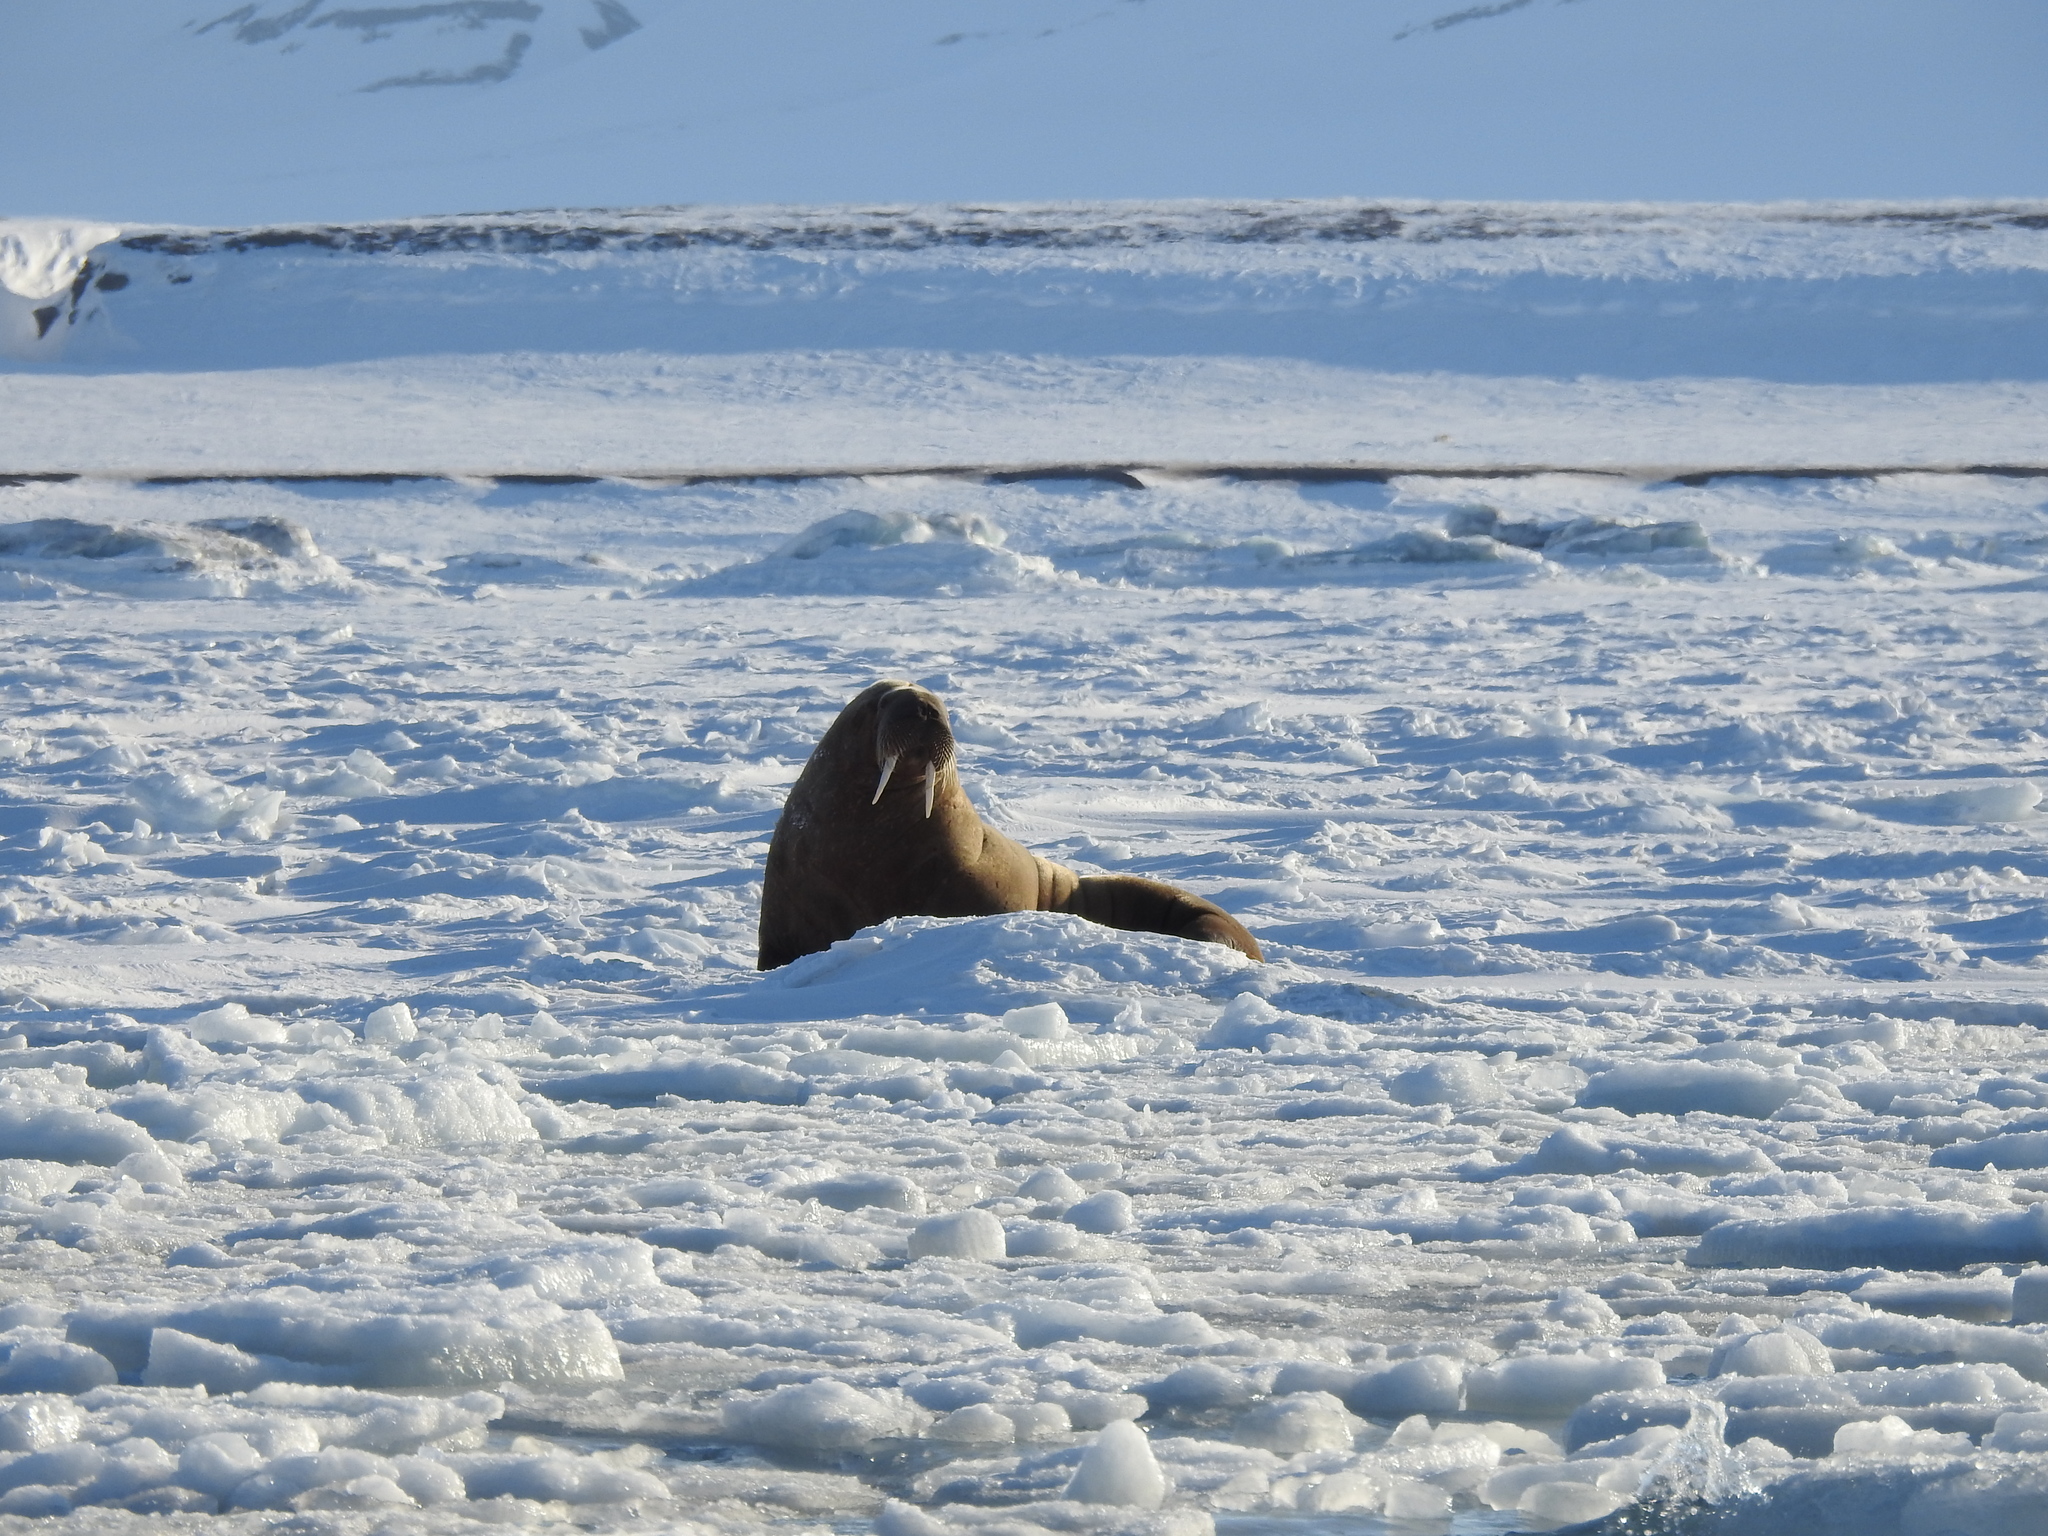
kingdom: Animalia
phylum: Chordata
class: Mammalia
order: Carnivora
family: Odobenidae
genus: Odobenus
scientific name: Odobenus rosmarus
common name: Walrus
